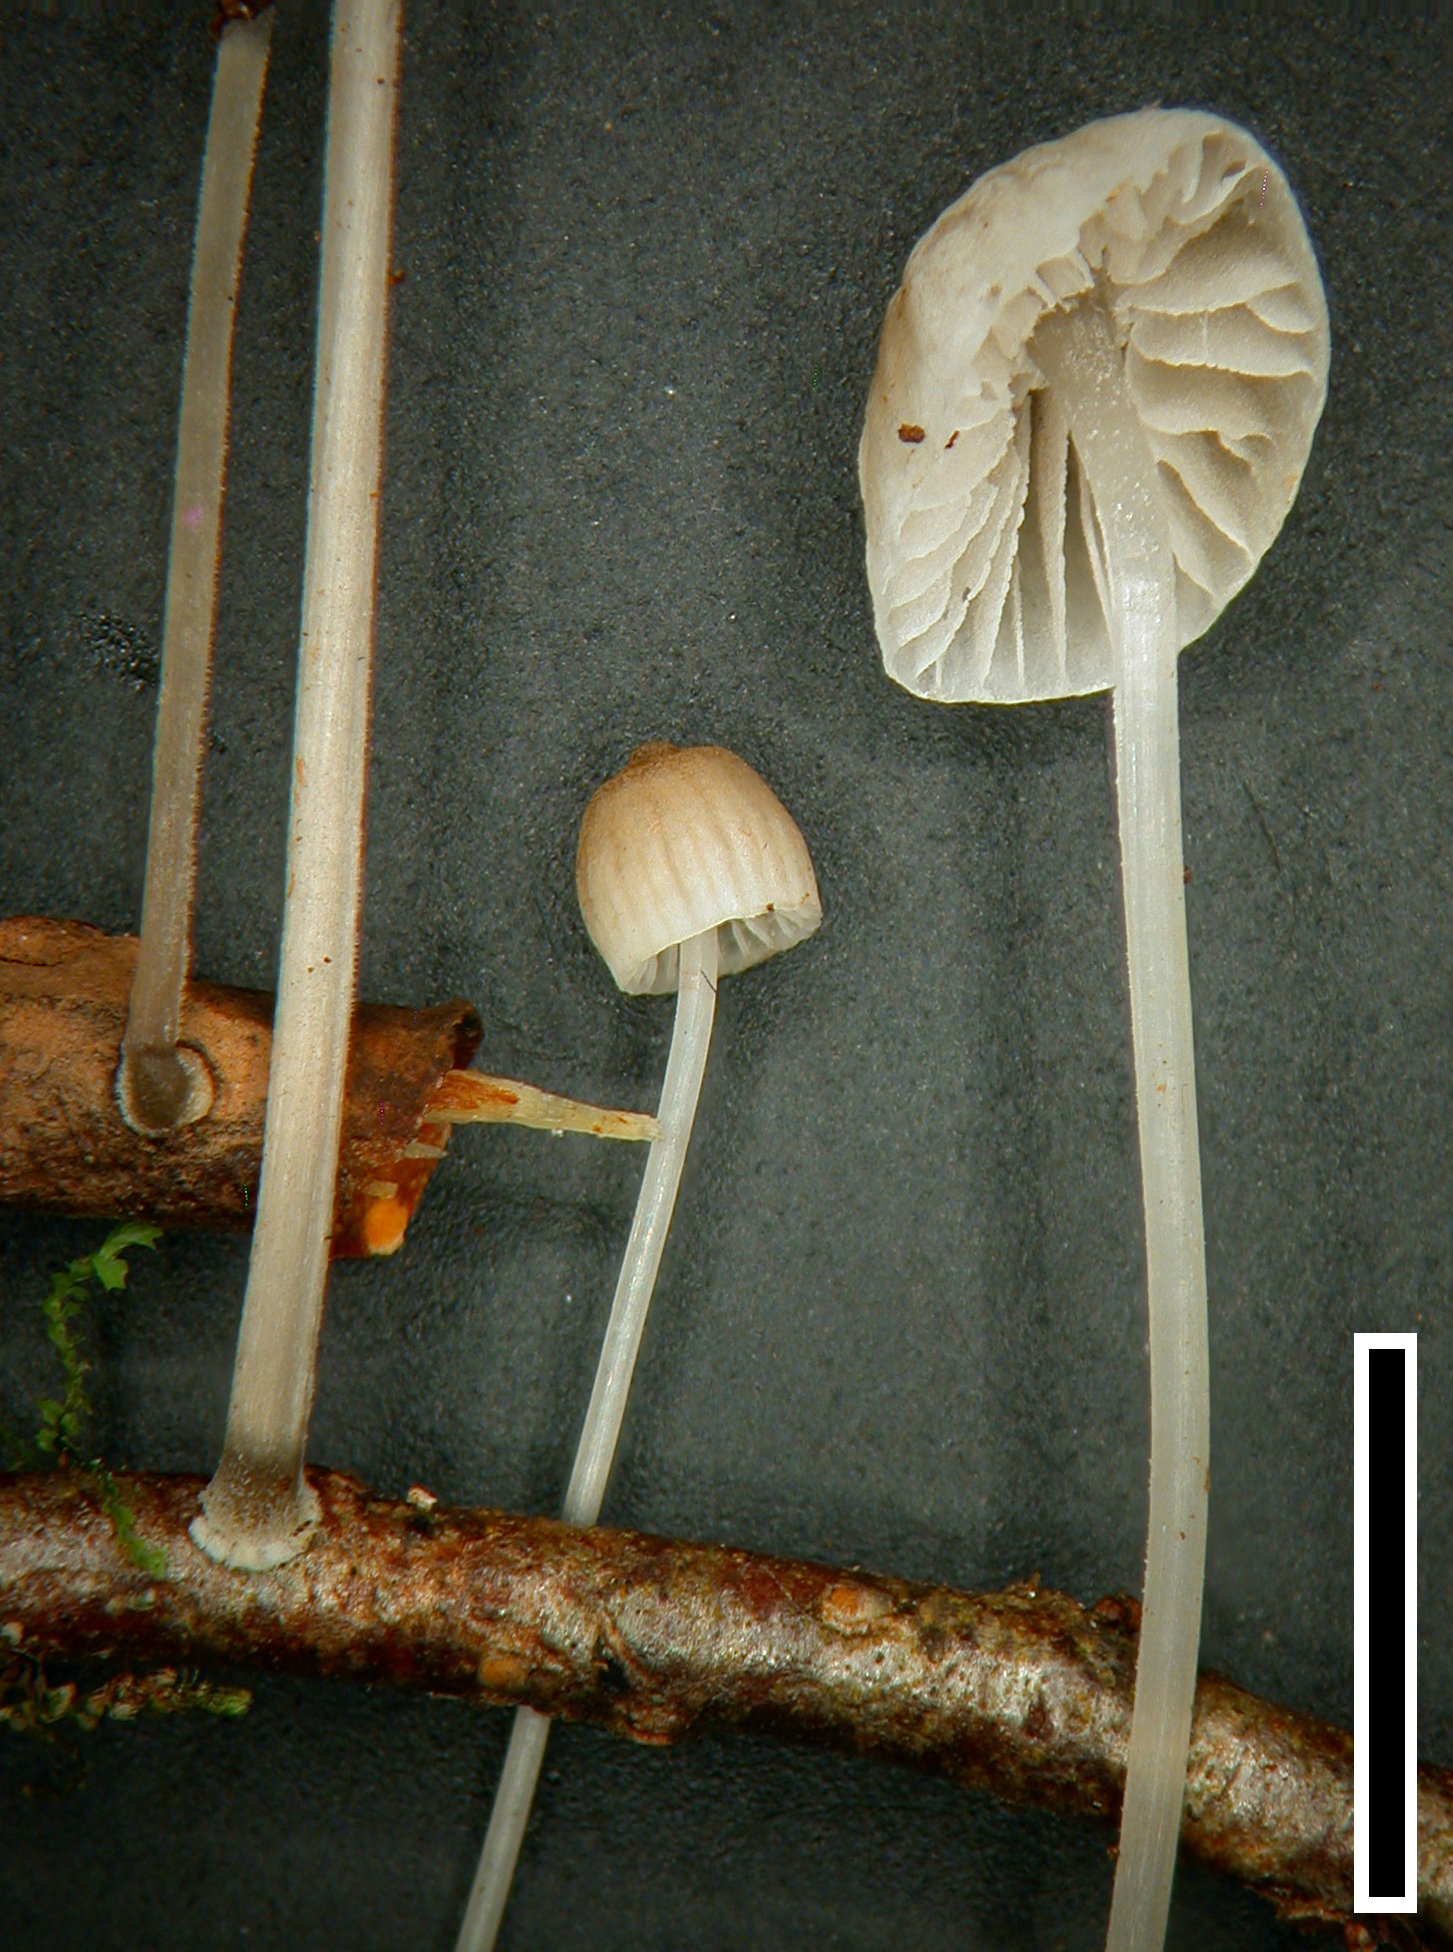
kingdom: Fungi
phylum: Basidiomycota
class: Agaricomycetes
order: Agaricales
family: Mycenaceae
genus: Mycena
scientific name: Mycena subdebilis
